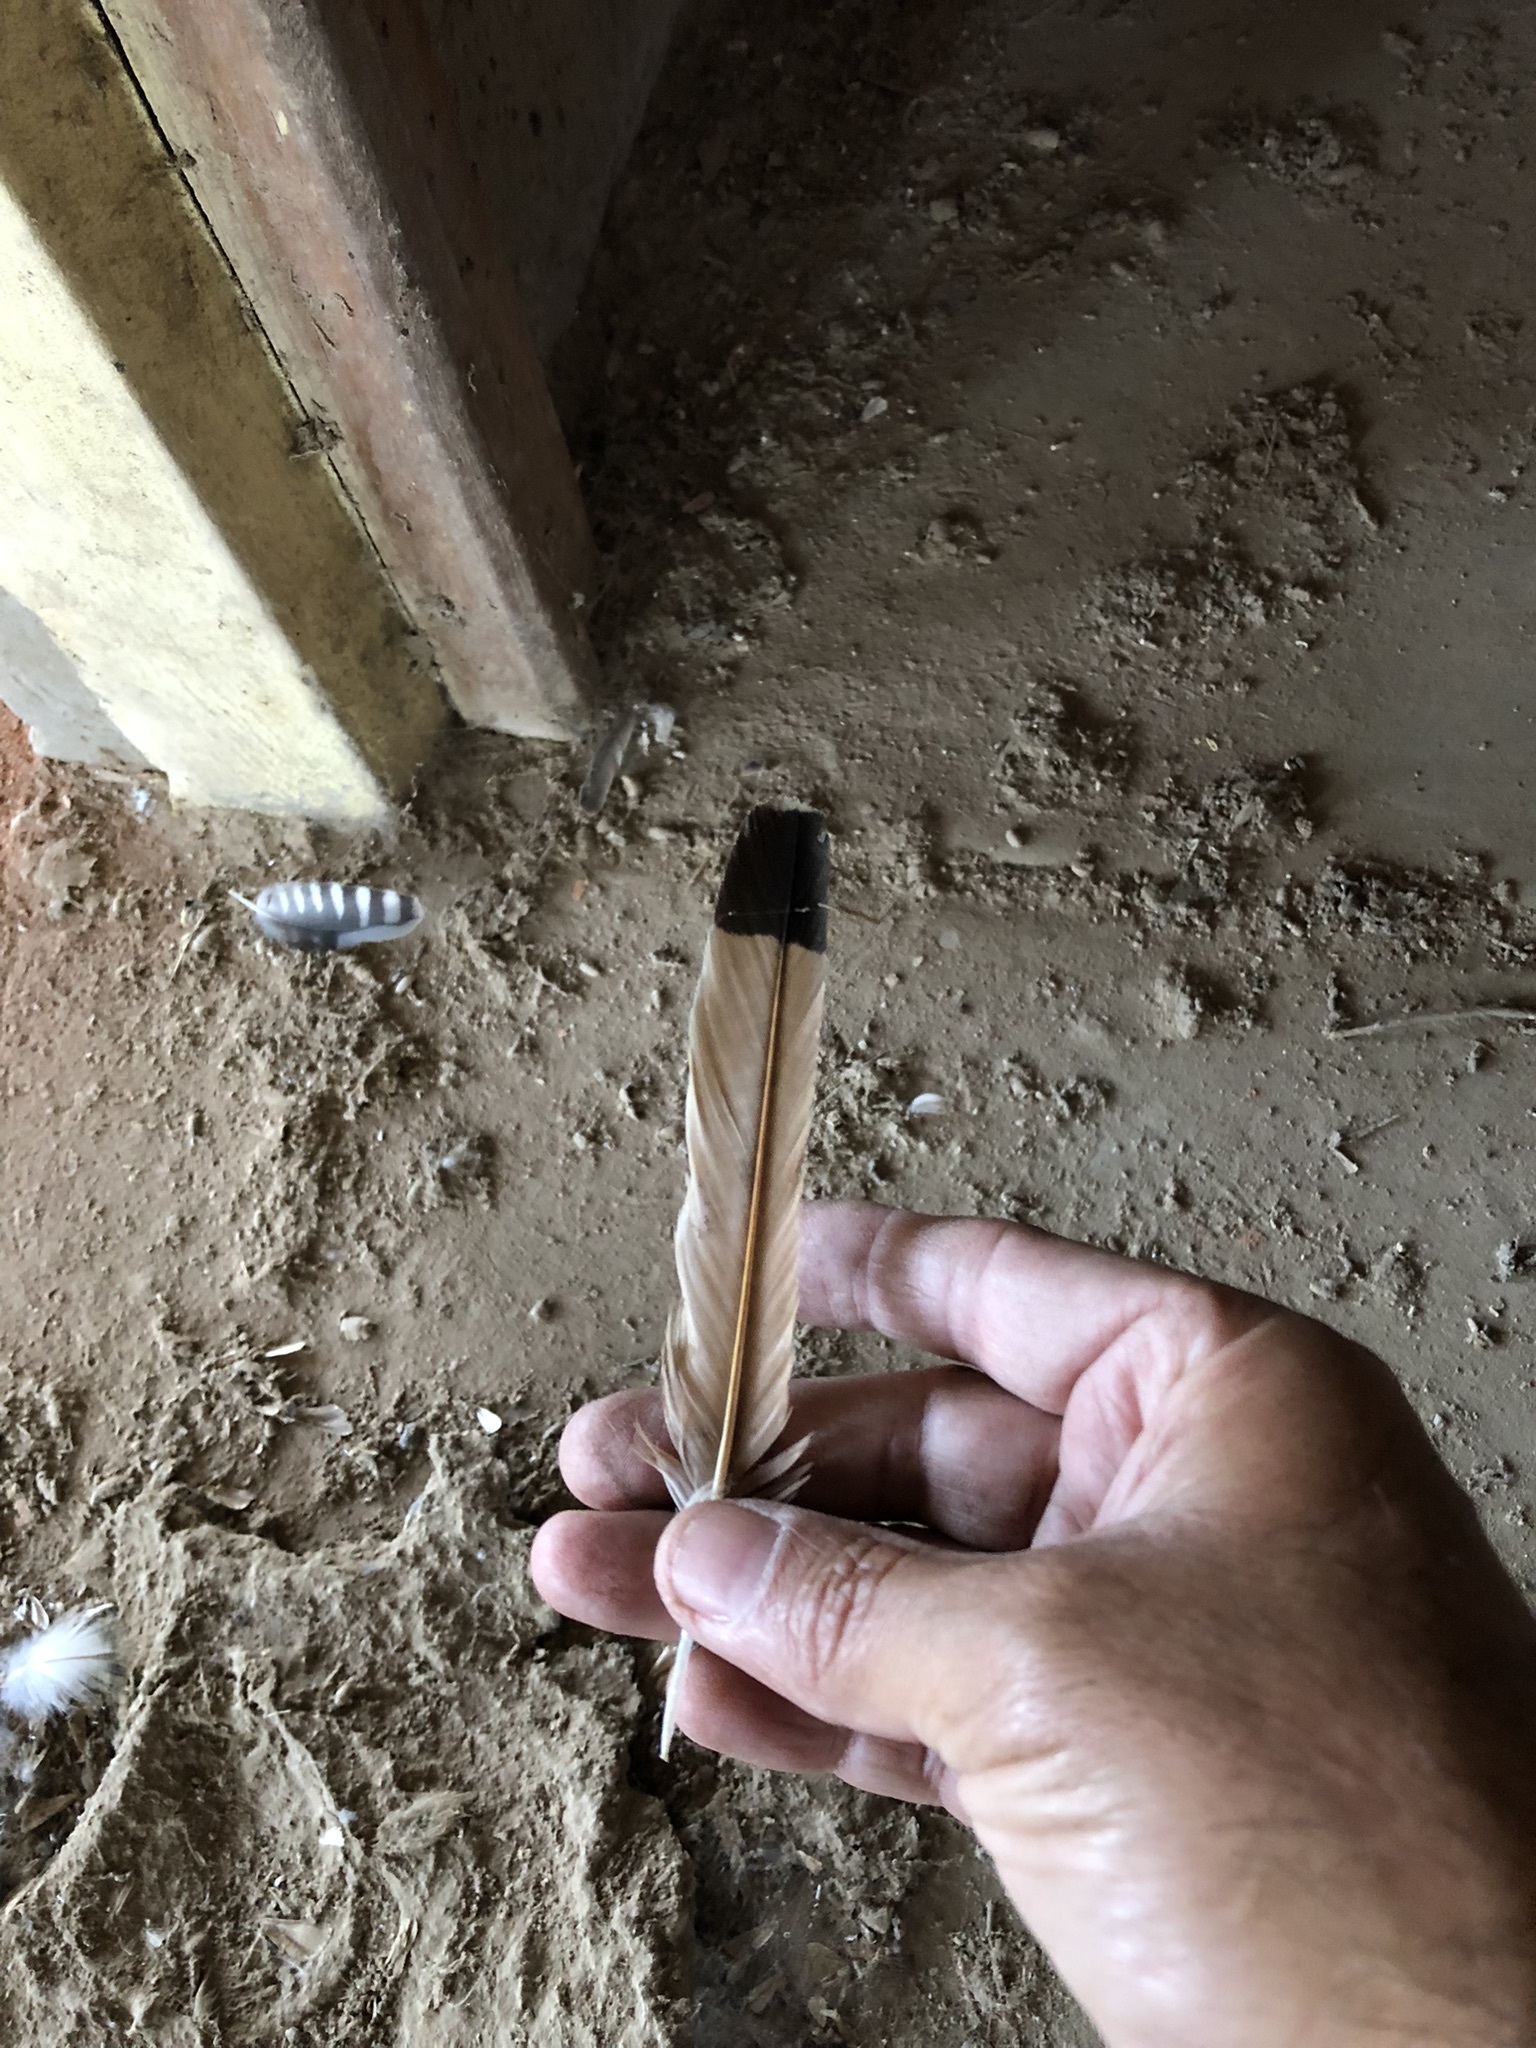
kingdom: Animalia
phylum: Chordata
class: Aves
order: Falconiformes
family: Falconidae
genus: Falco
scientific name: Falco sparverius
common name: American kestrel
